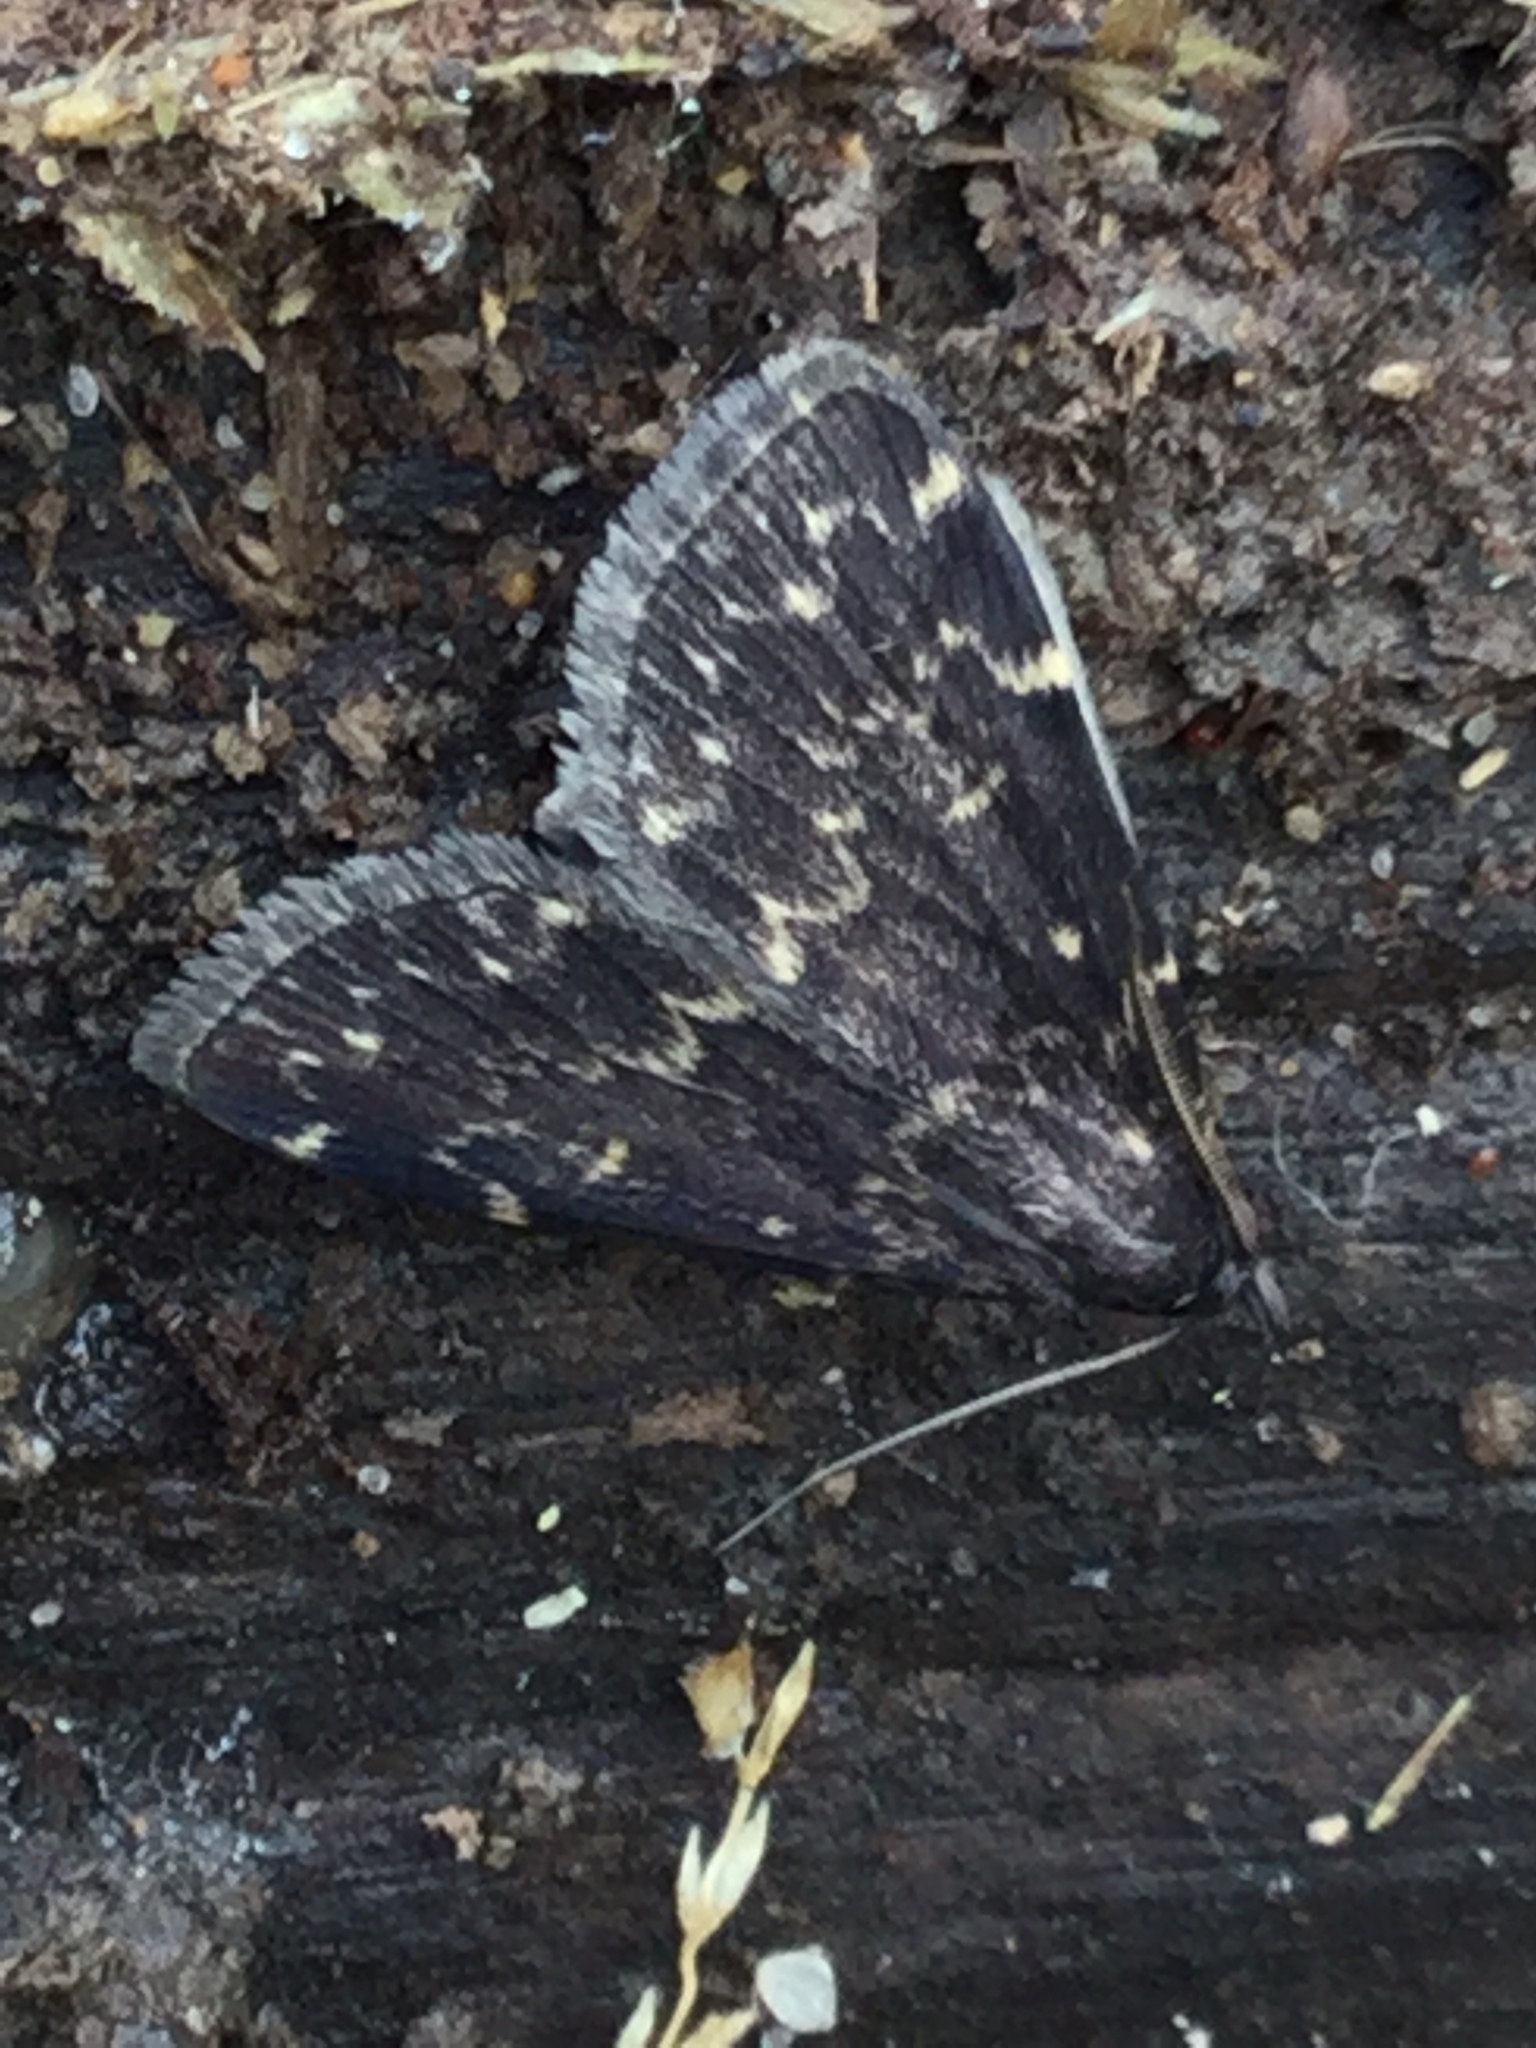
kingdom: Animalia
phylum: Arthropoda
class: Insecta
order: Lepidoptera
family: Erebidae
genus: Idia
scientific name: Idia julia
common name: Julia's idia moth
